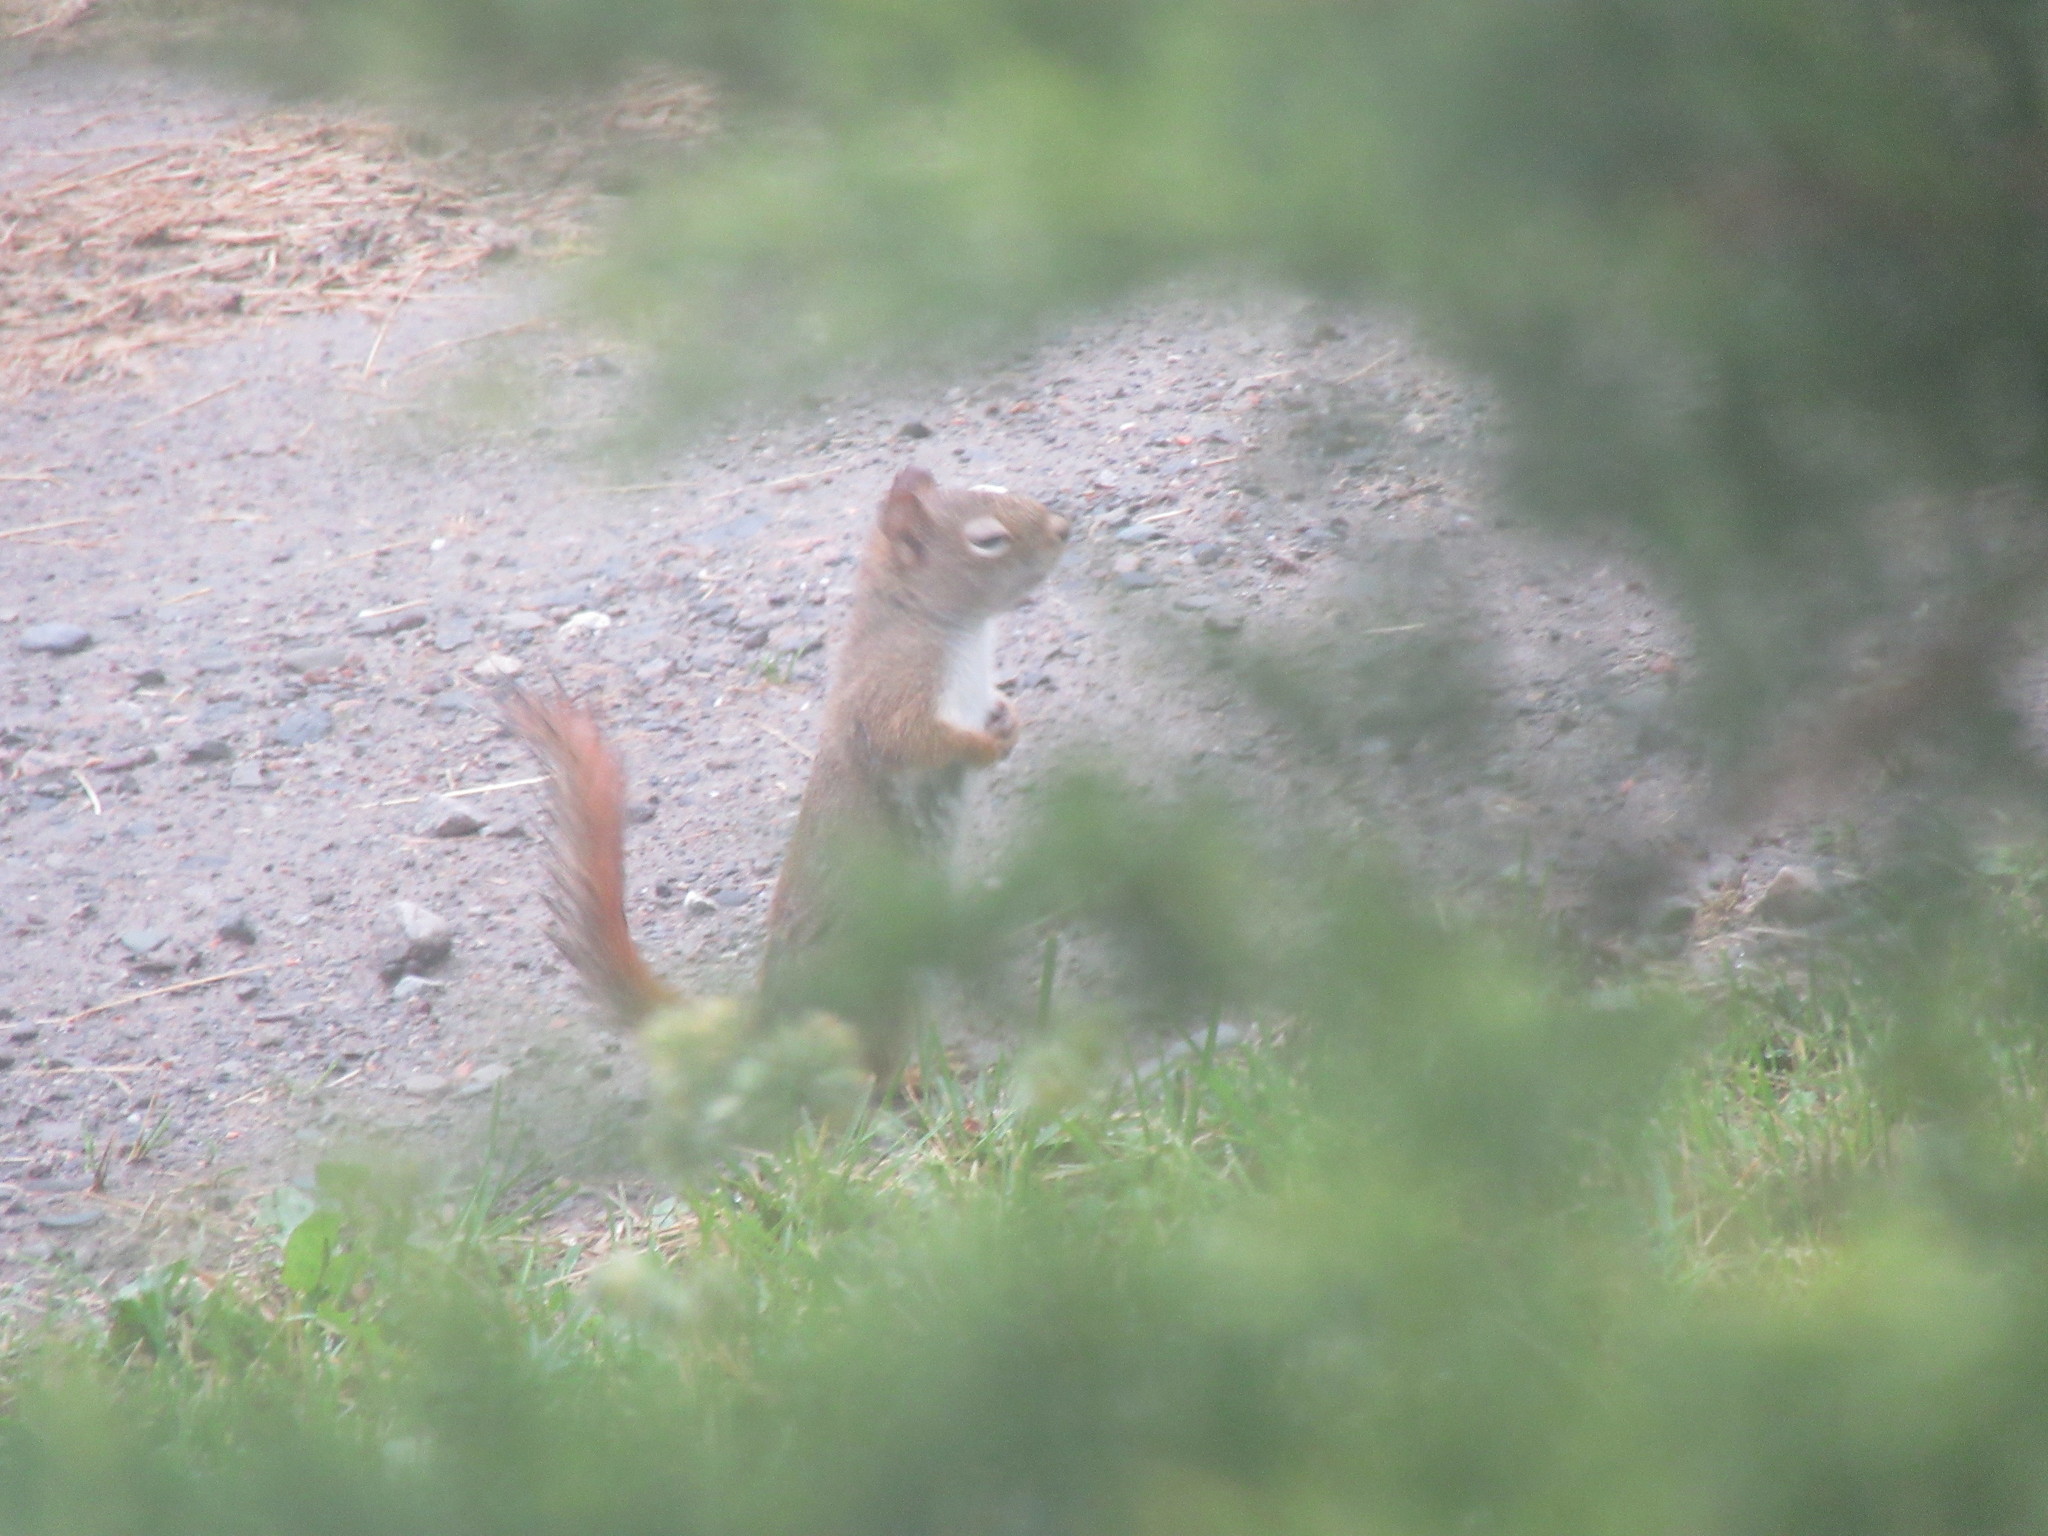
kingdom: Animalia
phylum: Chordata
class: Mammalia
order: Rodentia
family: Sciuridae
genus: Tamiasciurus
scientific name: Tamiasciurus hudsonicus
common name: Red squirrel
